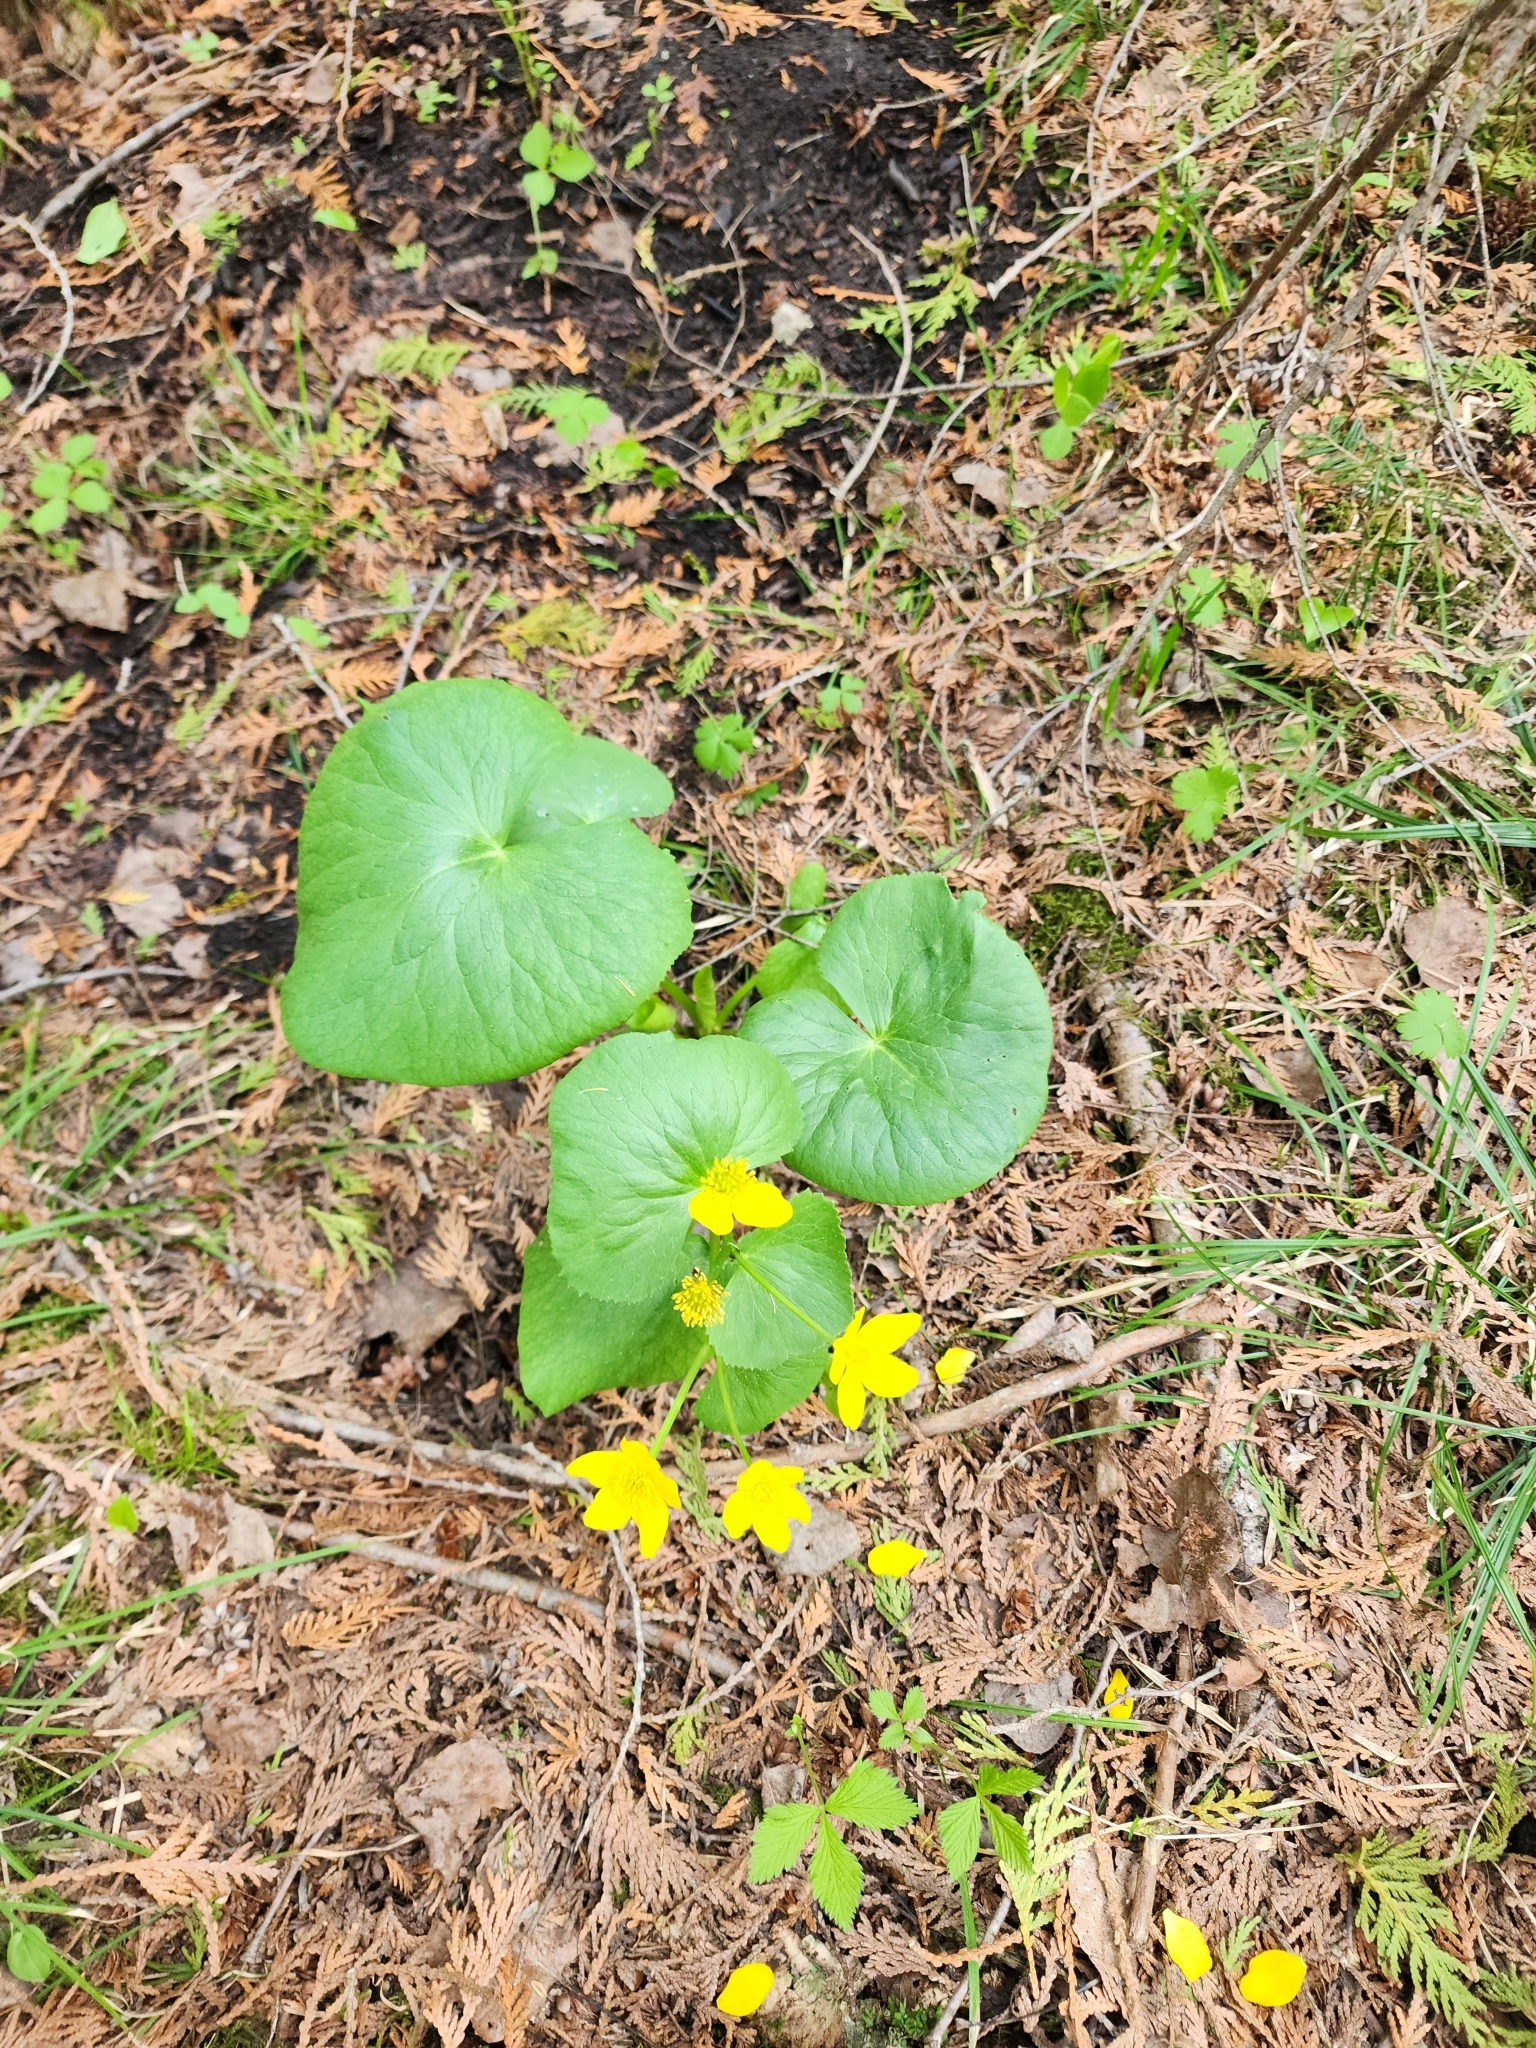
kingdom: Plantae
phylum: Tracheophyta
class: Magnoliopsida
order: Ranunculales
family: Ranunculaceae
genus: Caltha
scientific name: Caltha palustris
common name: Marsh marigold
